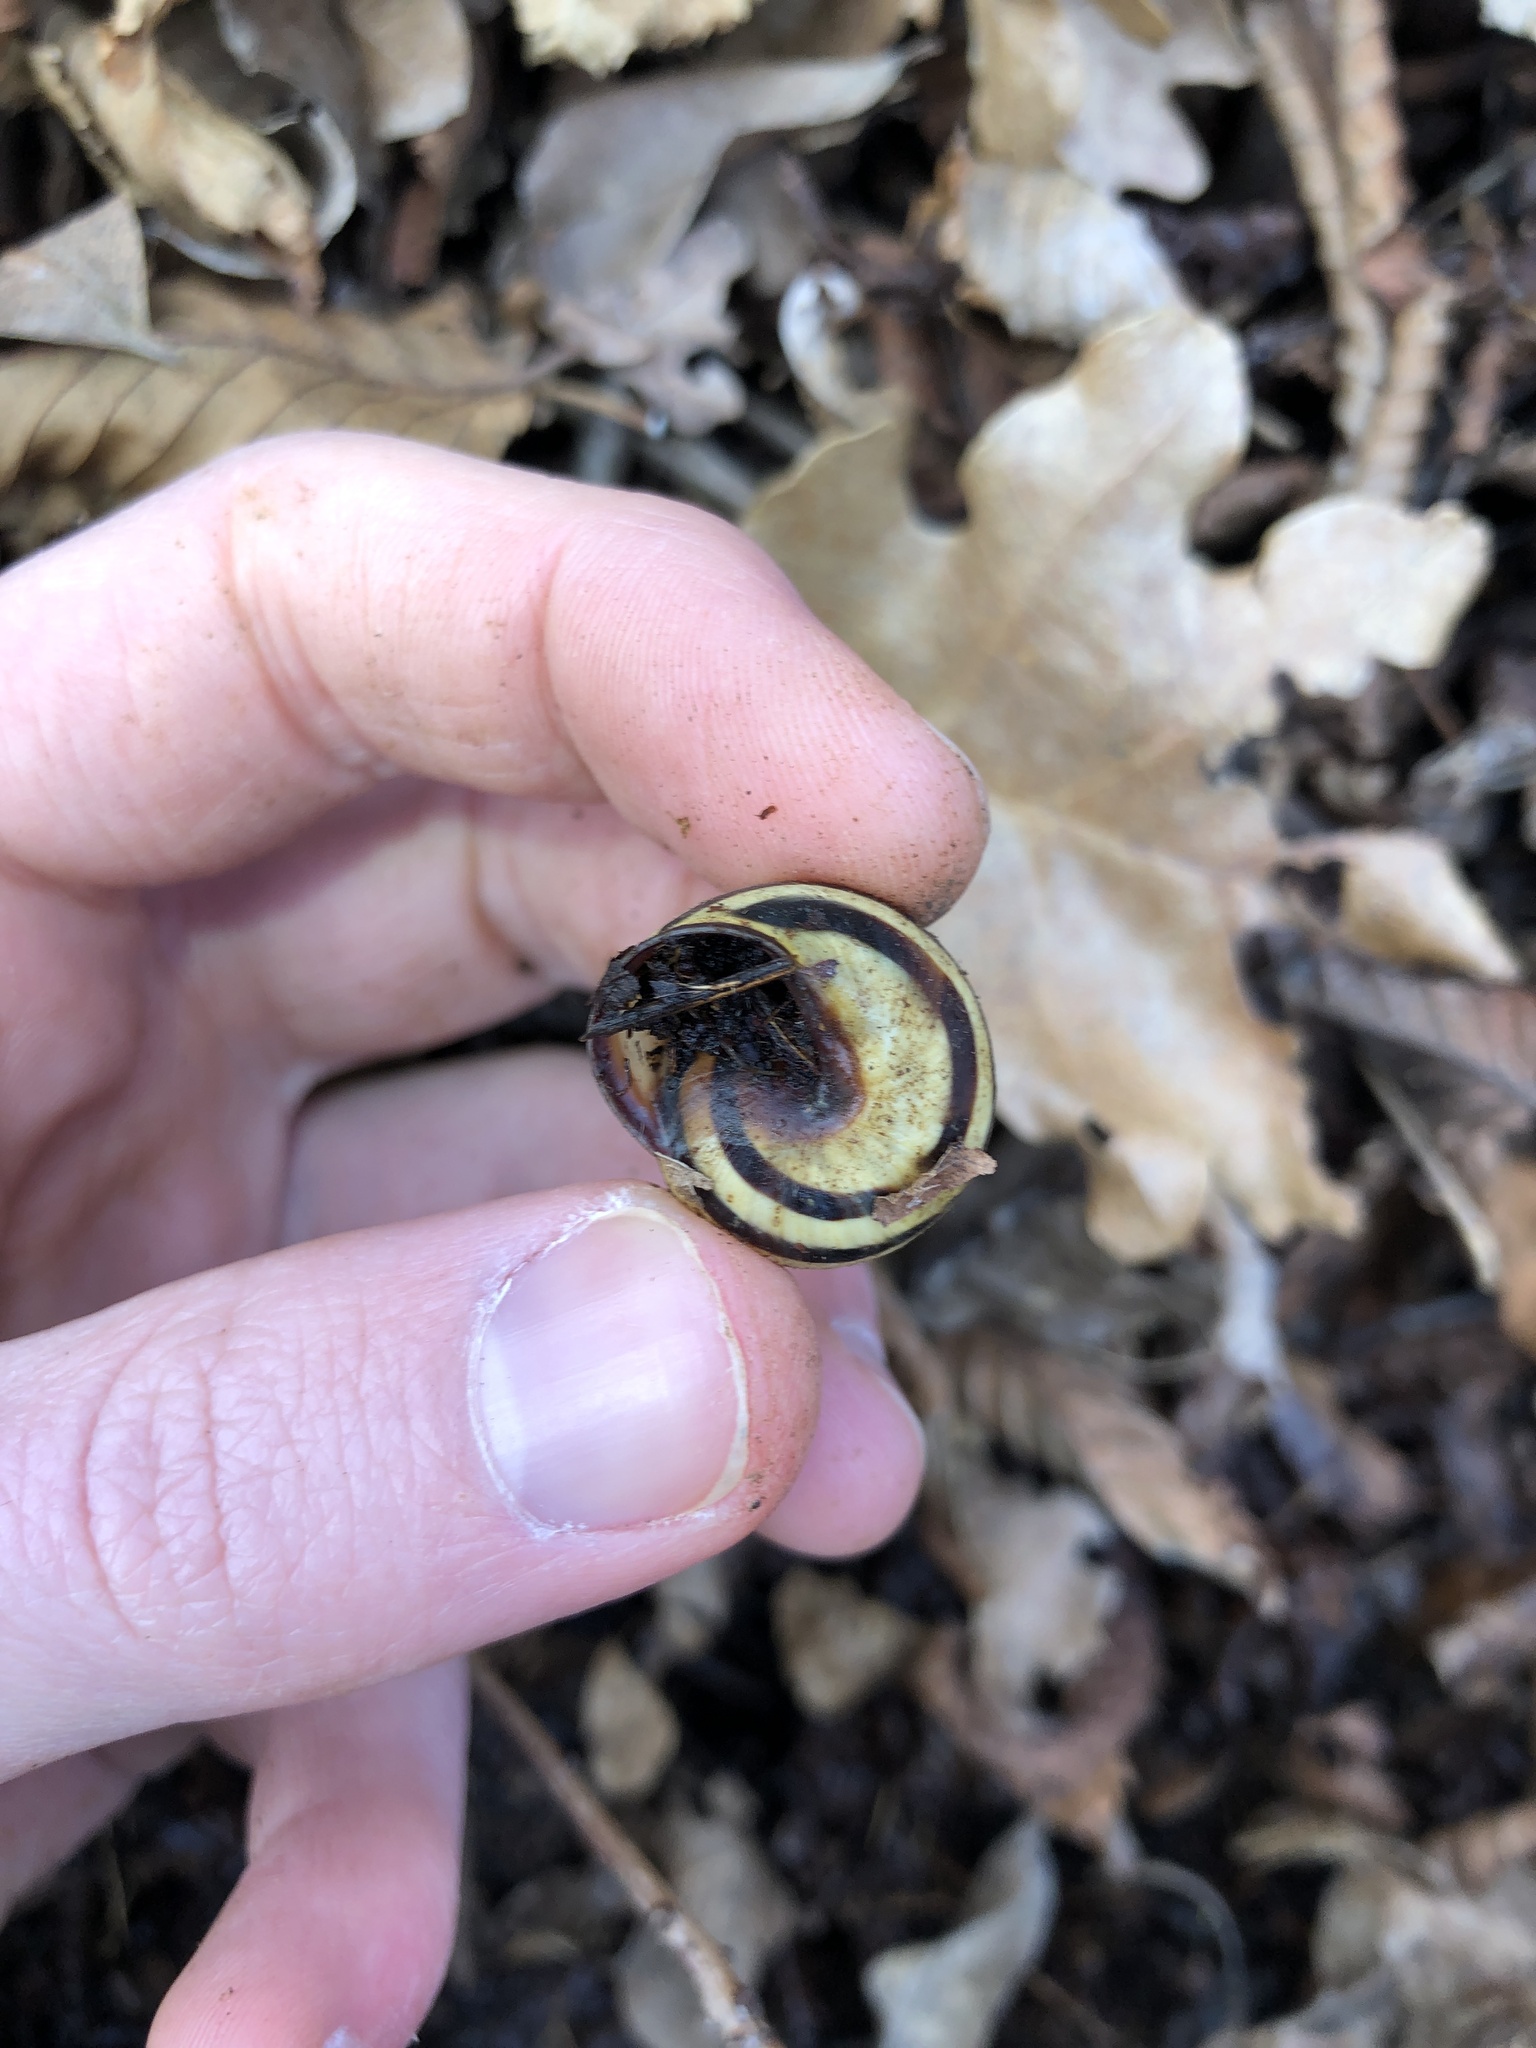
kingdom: Animalia
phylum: Mollusca
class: Gastropoda
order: Stylommatophora
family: Helicidae
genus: Cepaea
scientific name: Cepaea nemoralis
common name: Grovesnail
